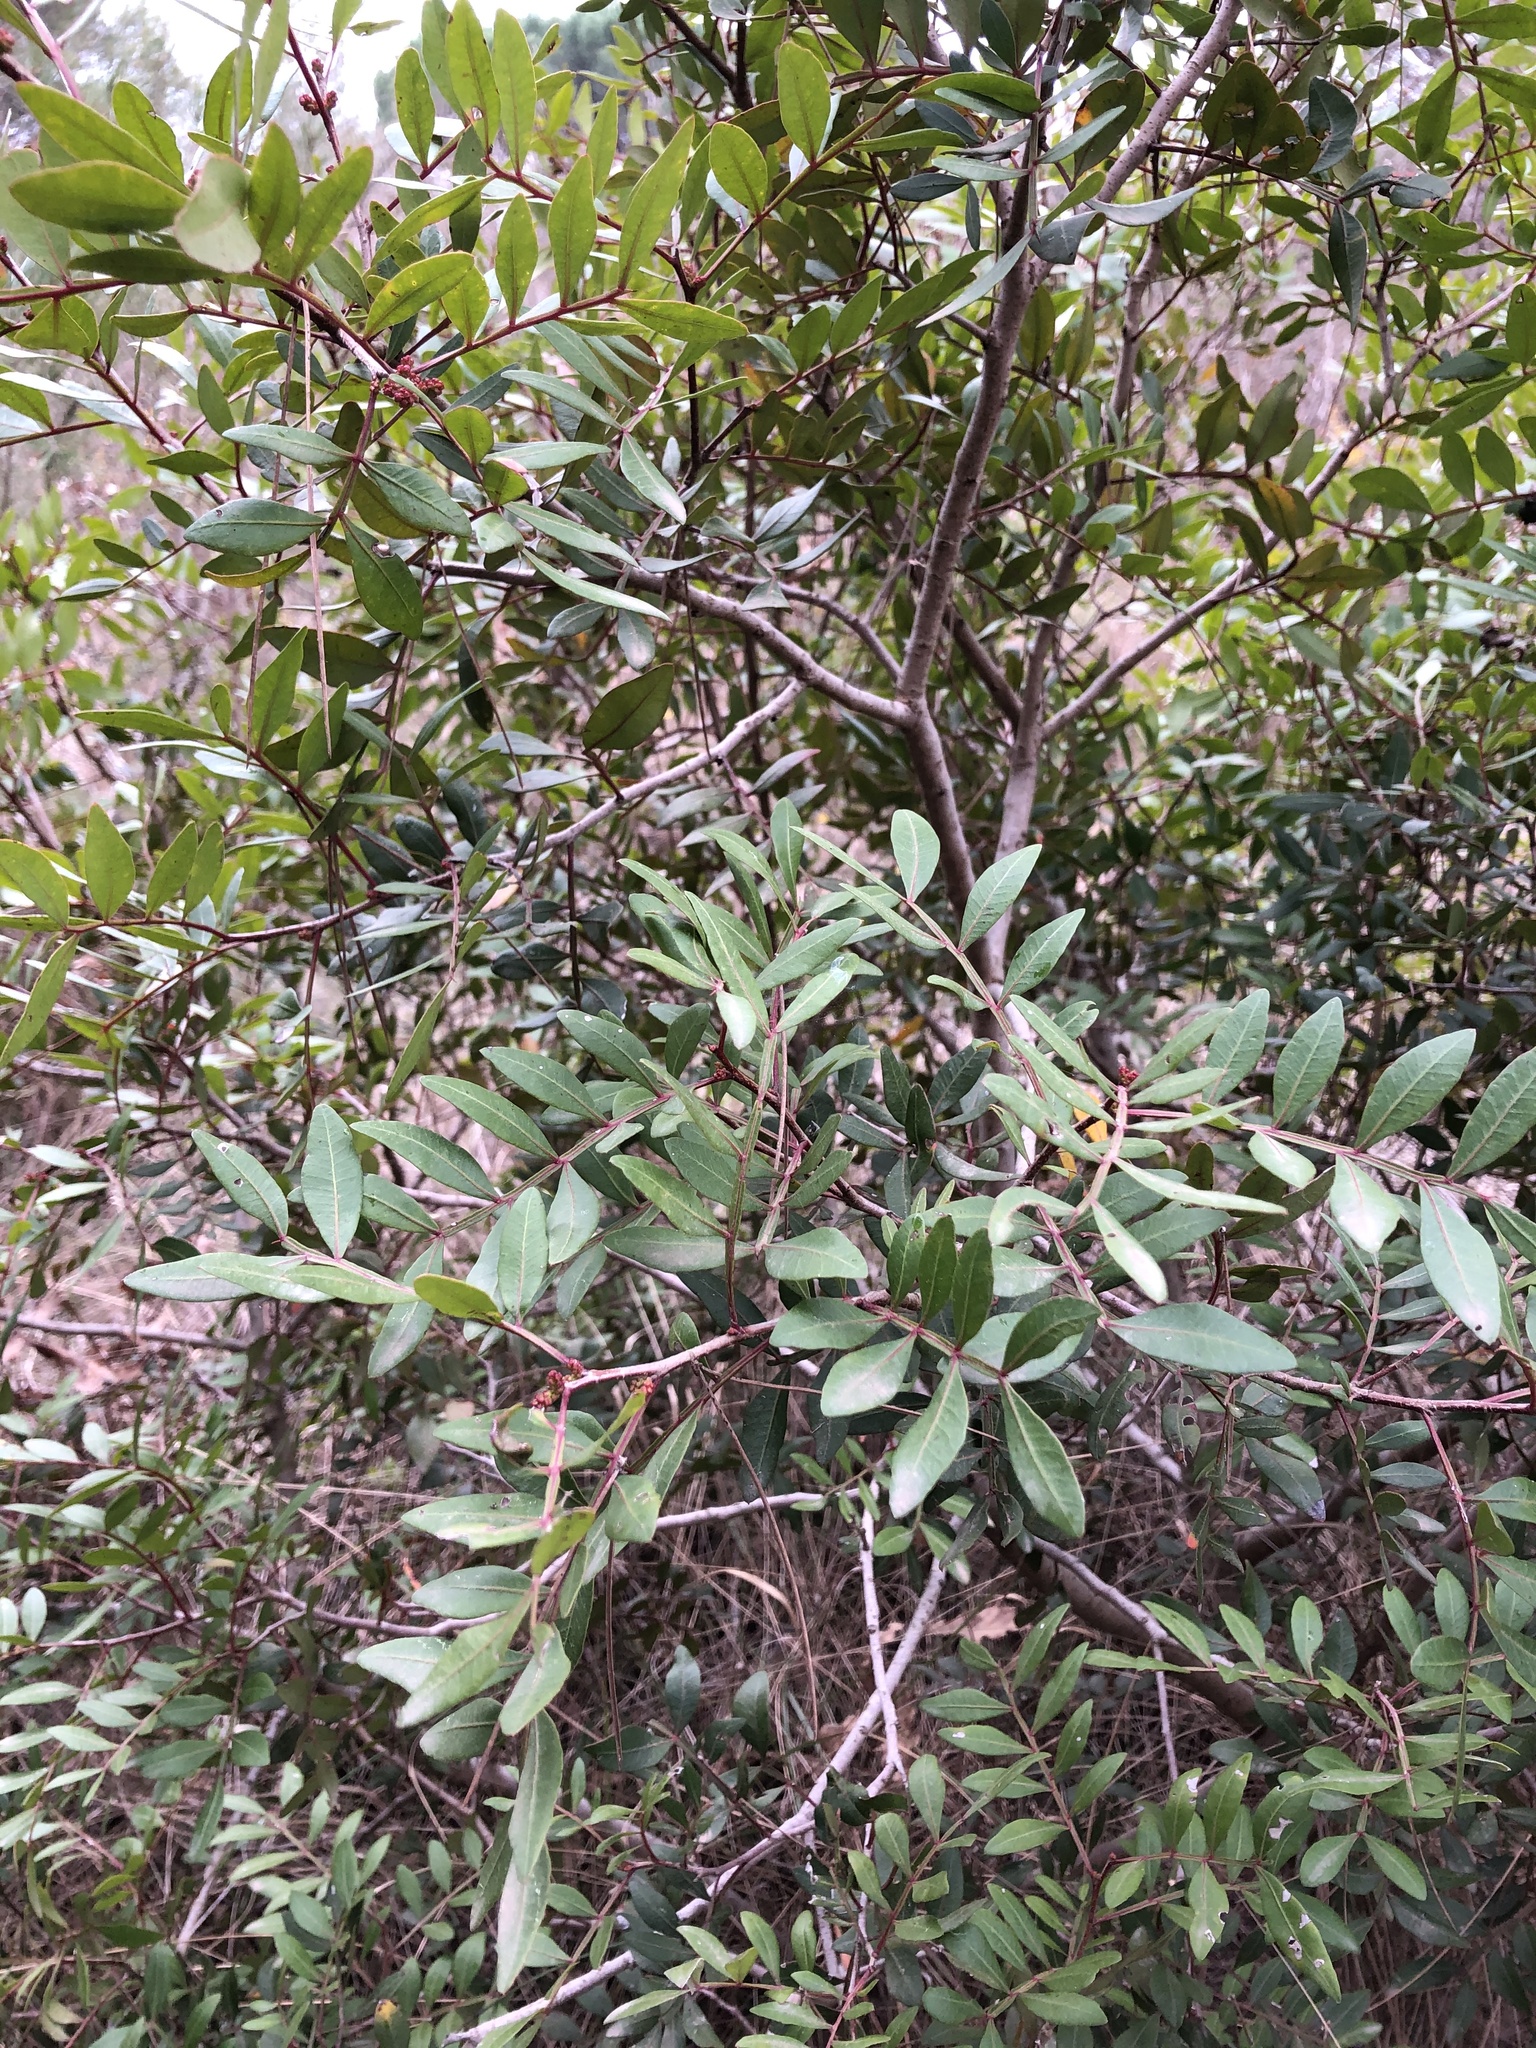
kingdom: Plantae
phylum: Tracheophyta
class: Magnoliopsida
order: Sapindales
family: Anacardiaceae
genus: Pistacia
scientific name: Pistacia lentiscus
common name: Lentisk
